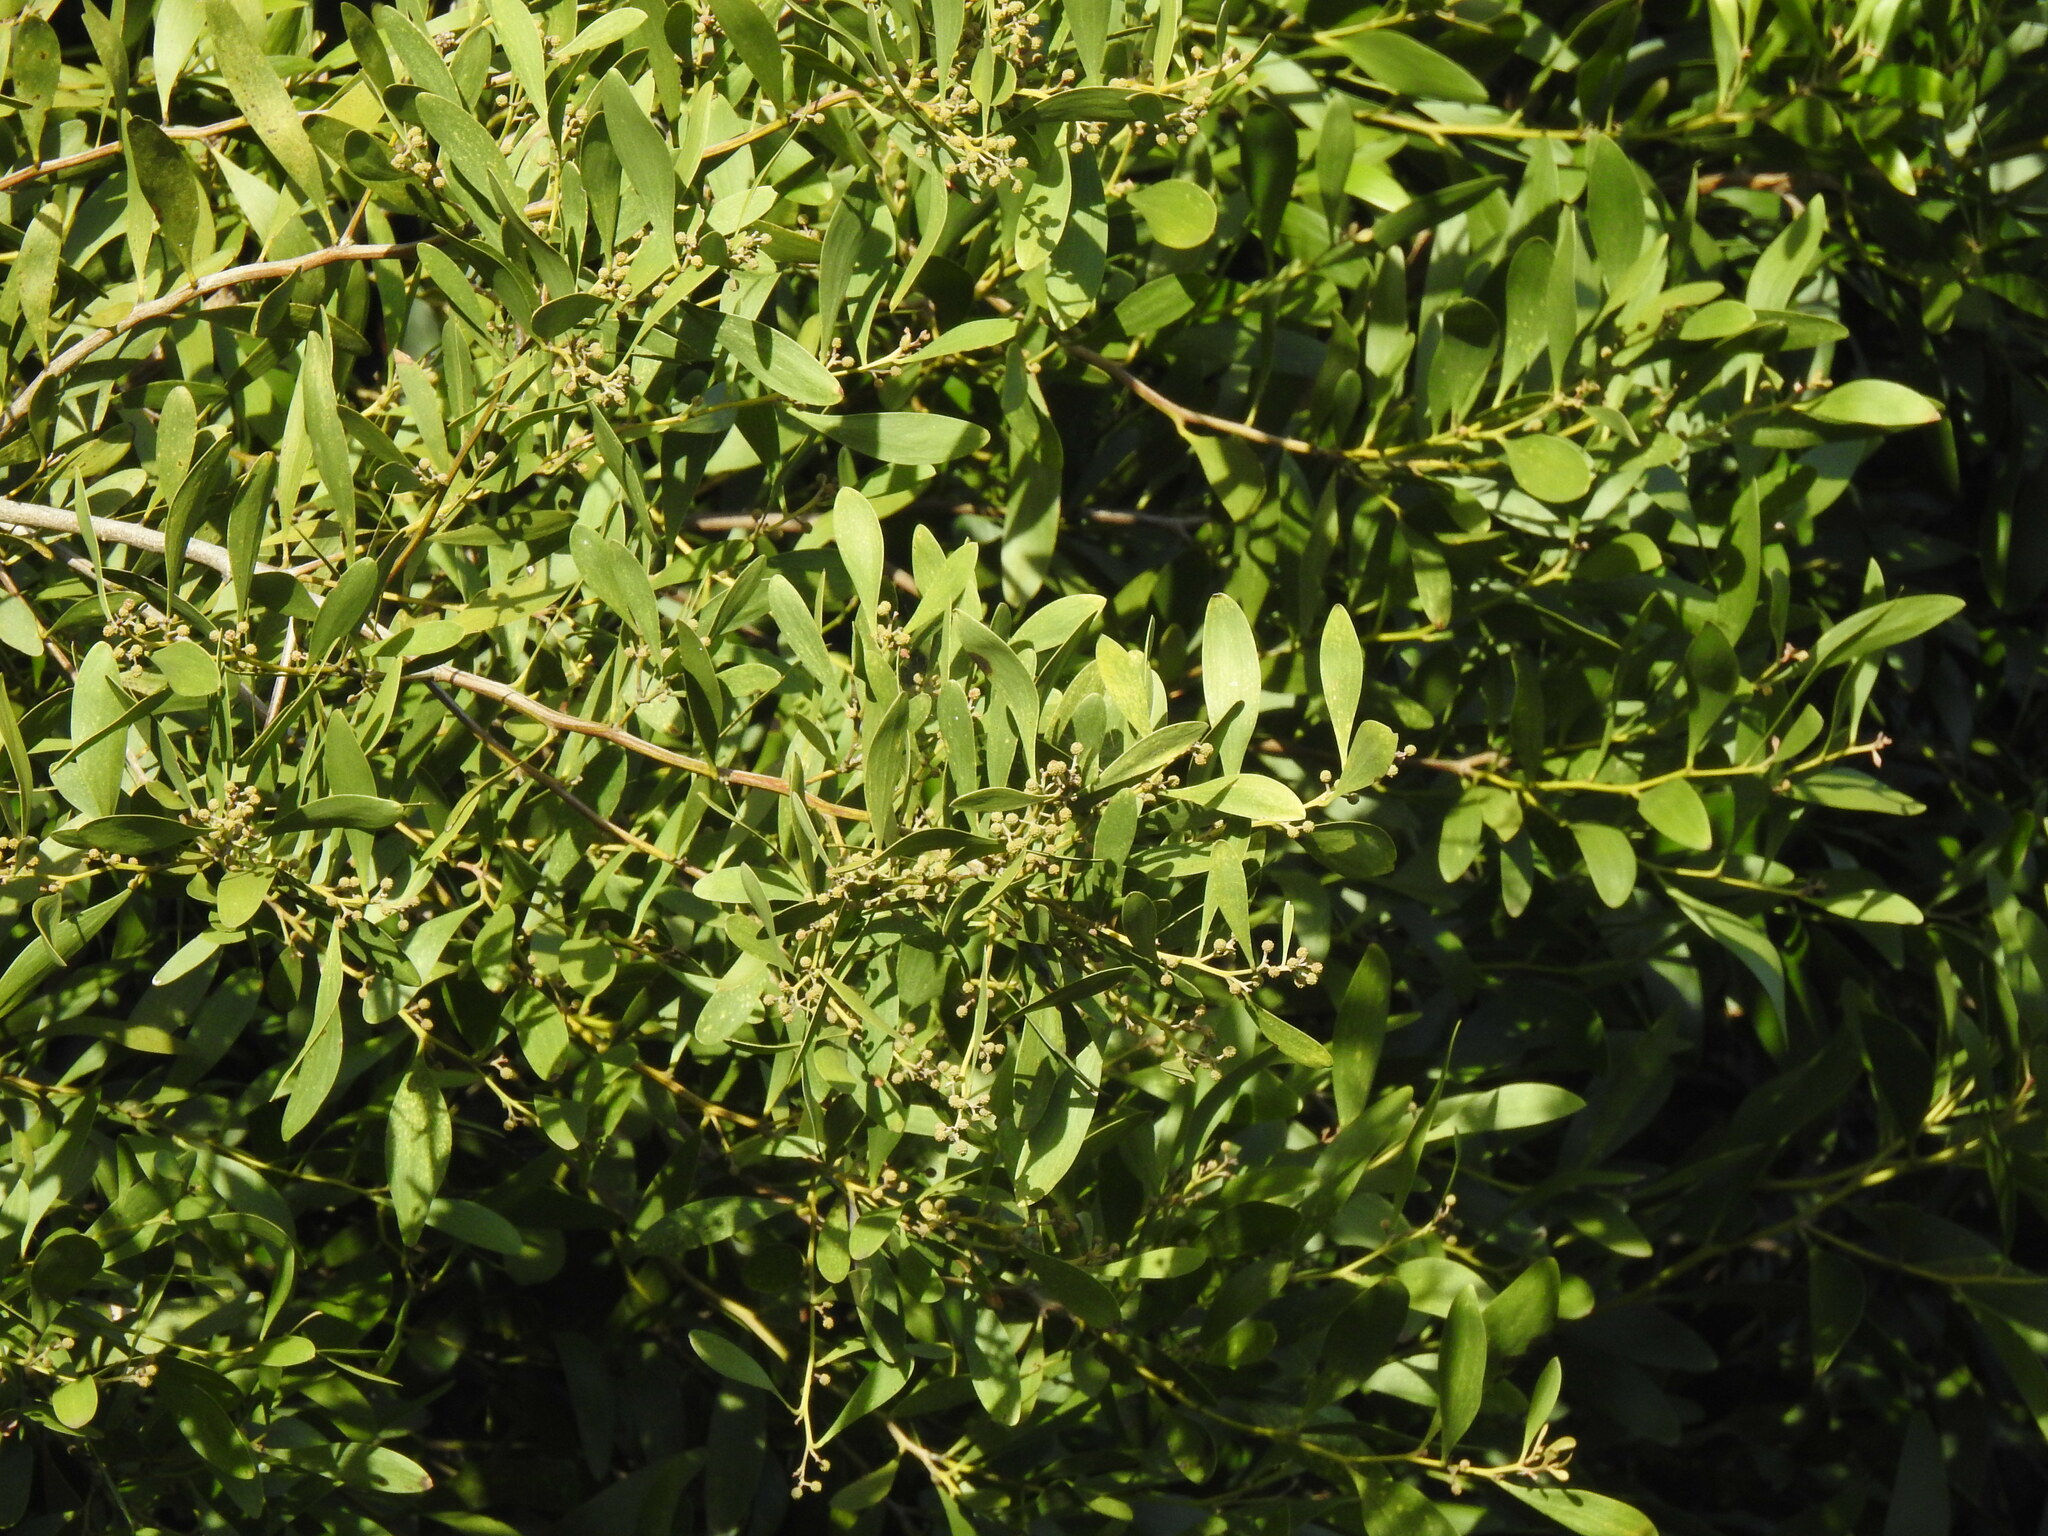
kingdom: Plantae
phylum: Tracheophyta
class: Magnoliopsida
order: Fabales
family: Fabaceae
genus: Acacia
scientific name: Acacia melanoxylon
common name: Blackwood
